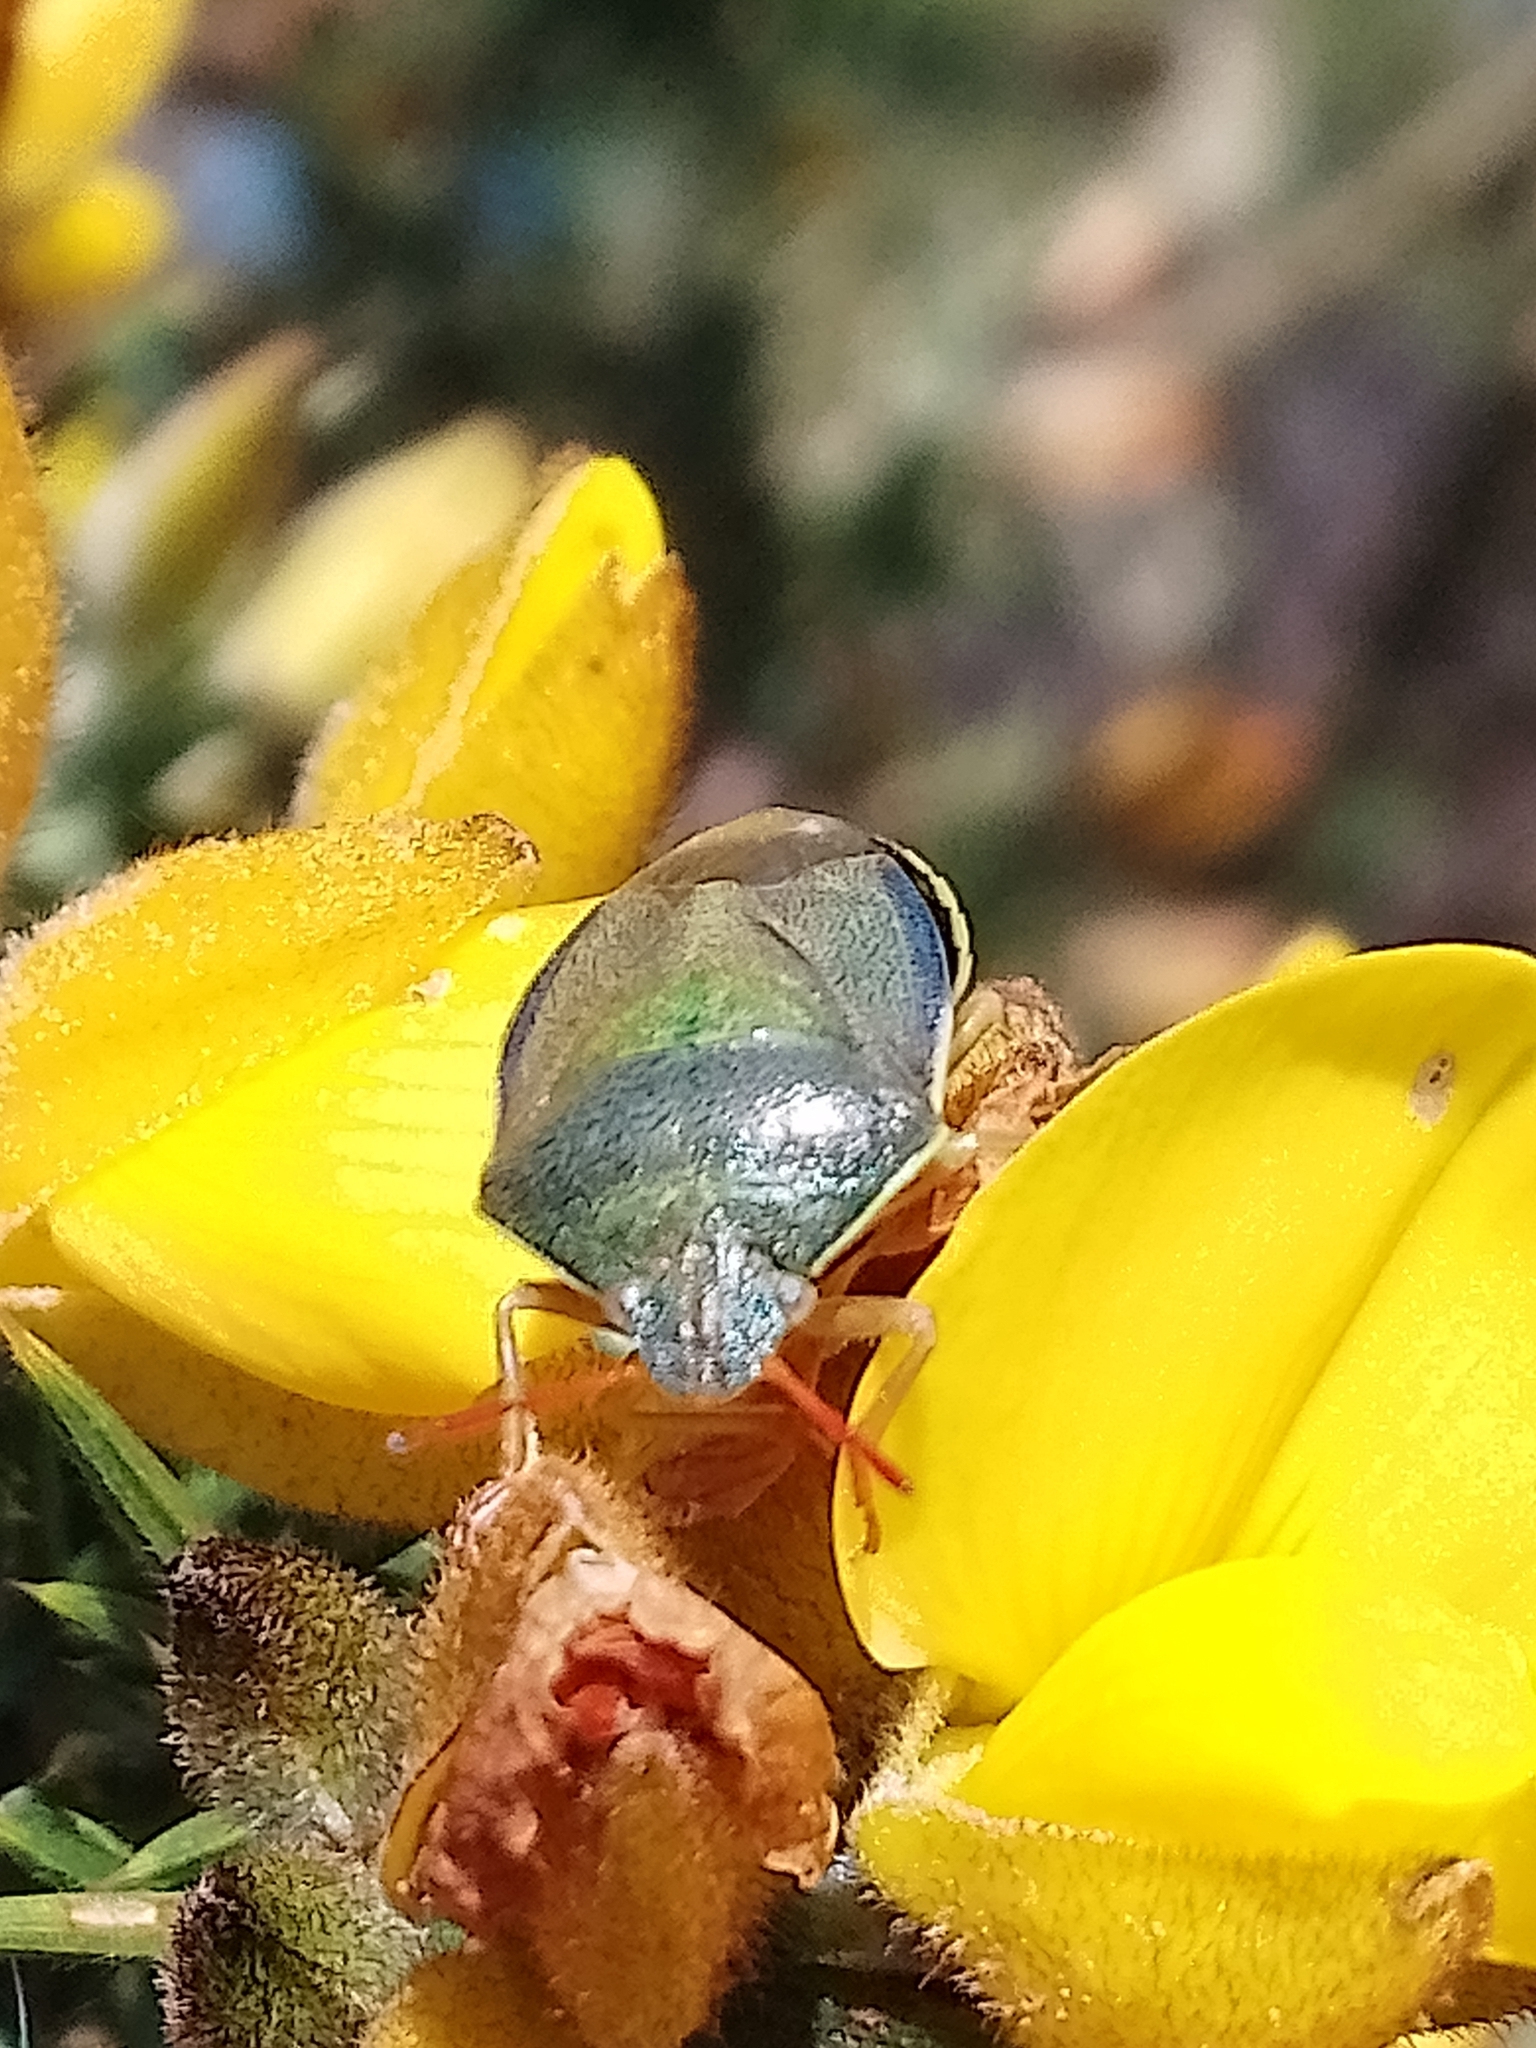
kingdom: Animalia
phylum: Arthropoda
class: Insecta
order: Hemiptera
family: Pentatomidae
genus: Piezodorus
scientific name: Piezodorus lituratus
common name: Stink bug
